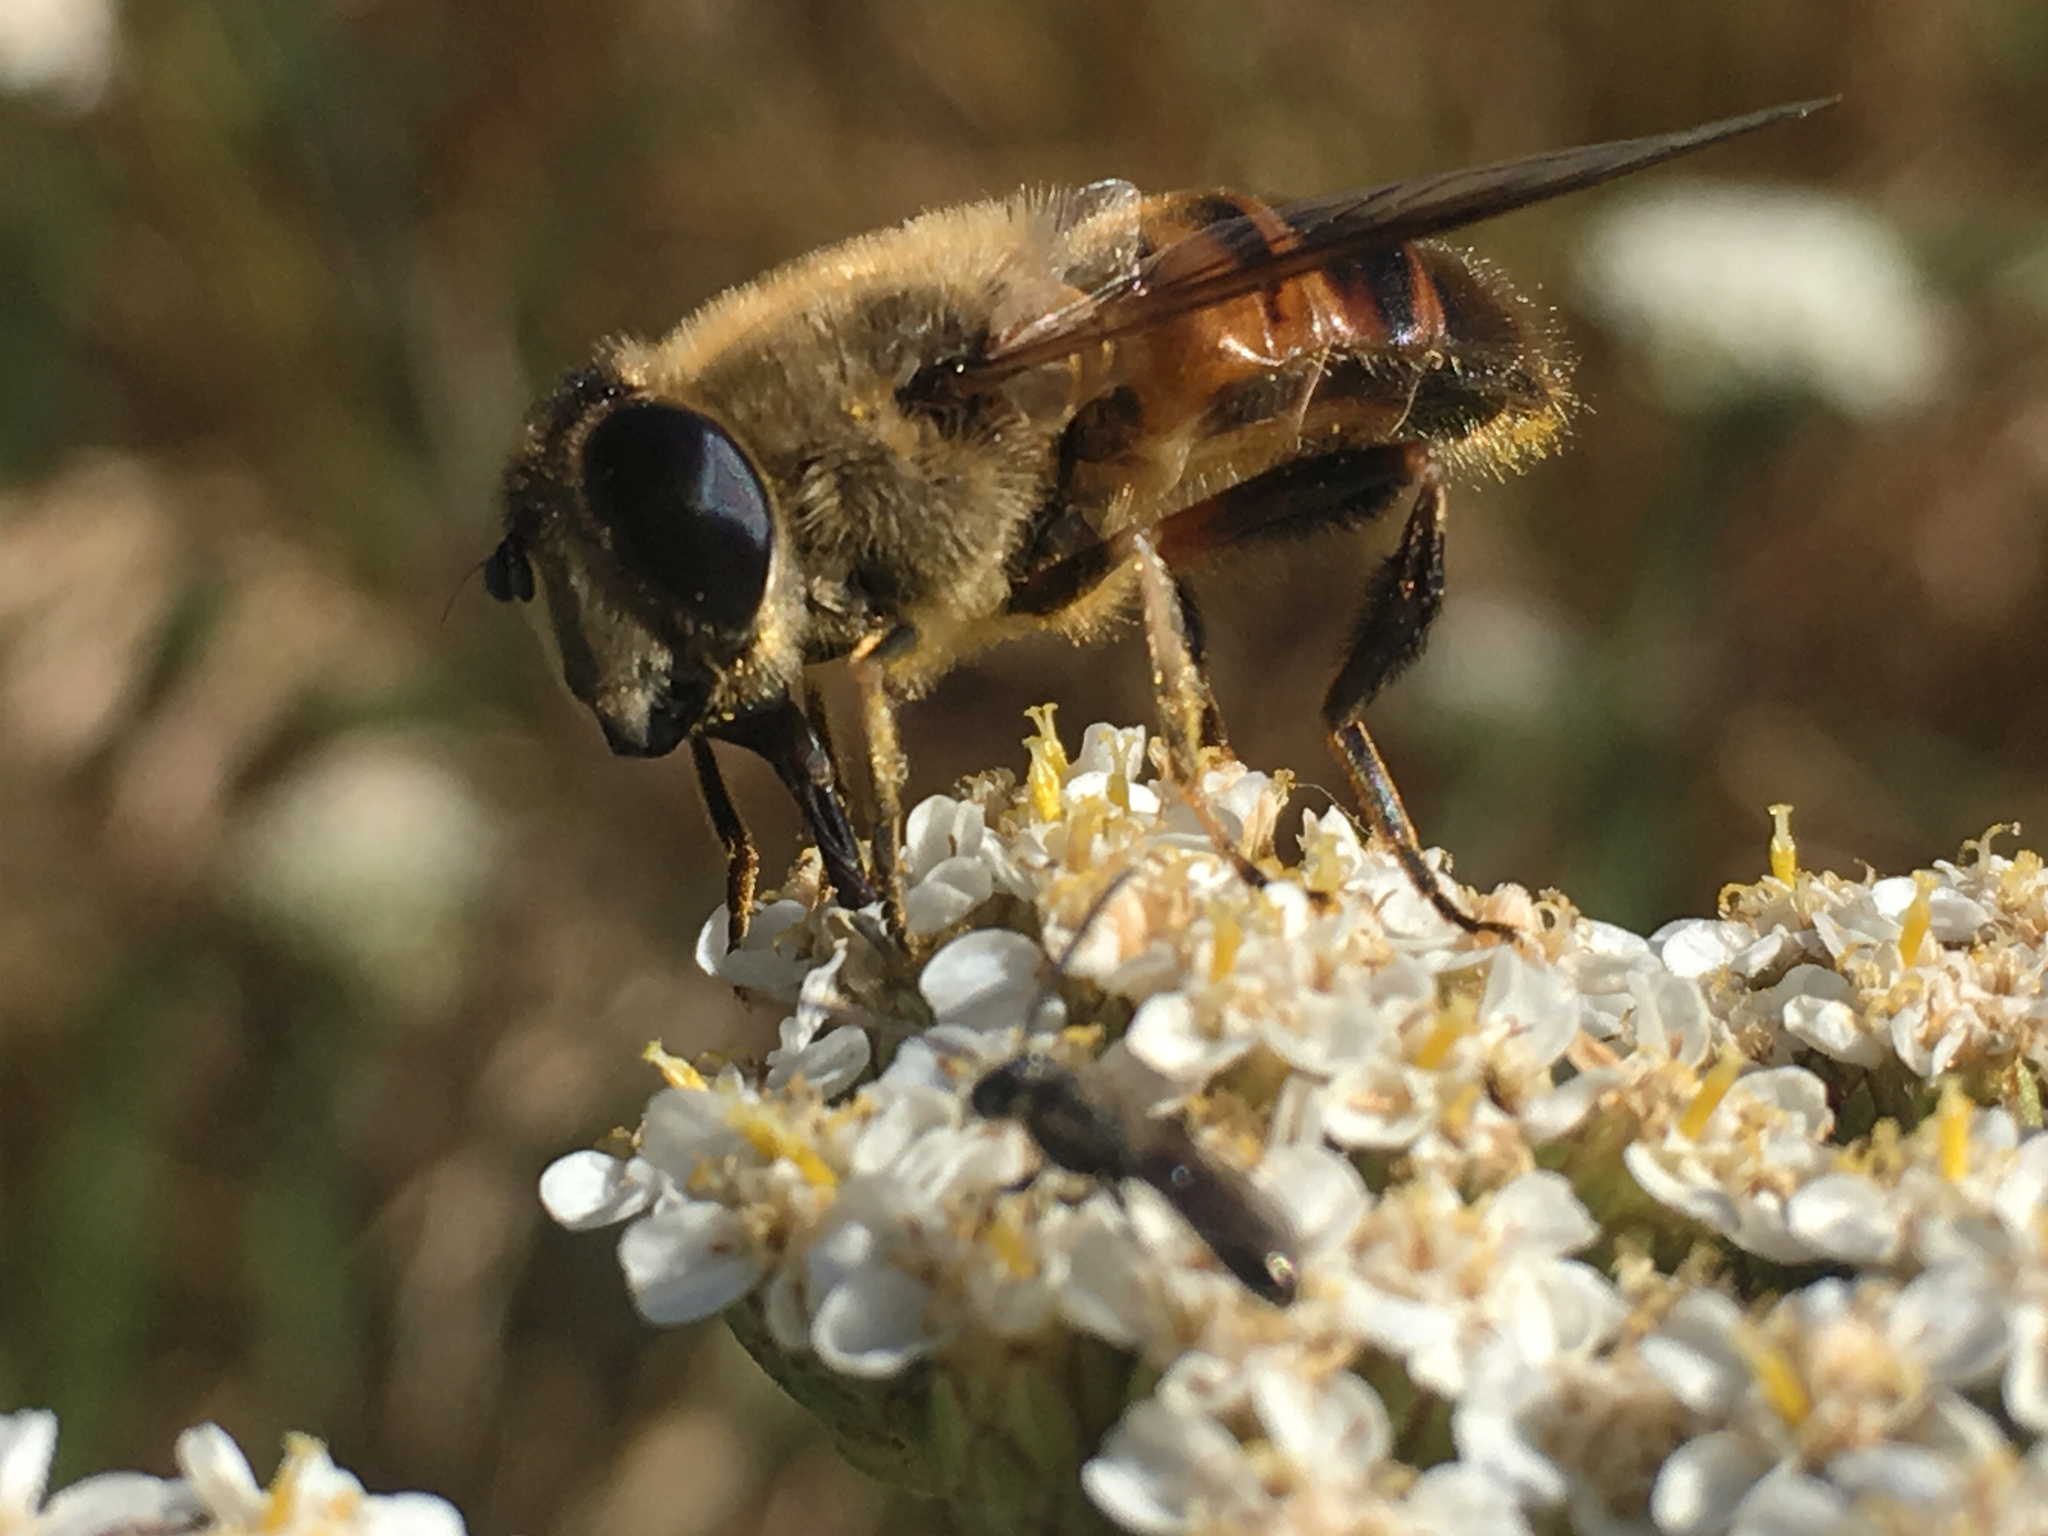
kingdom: Animalia
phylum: Arthropoda
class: Insecta
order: Diptera
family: Syrphidae
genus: Eristalis
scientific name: Eristalis tenax
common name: Drone fly
